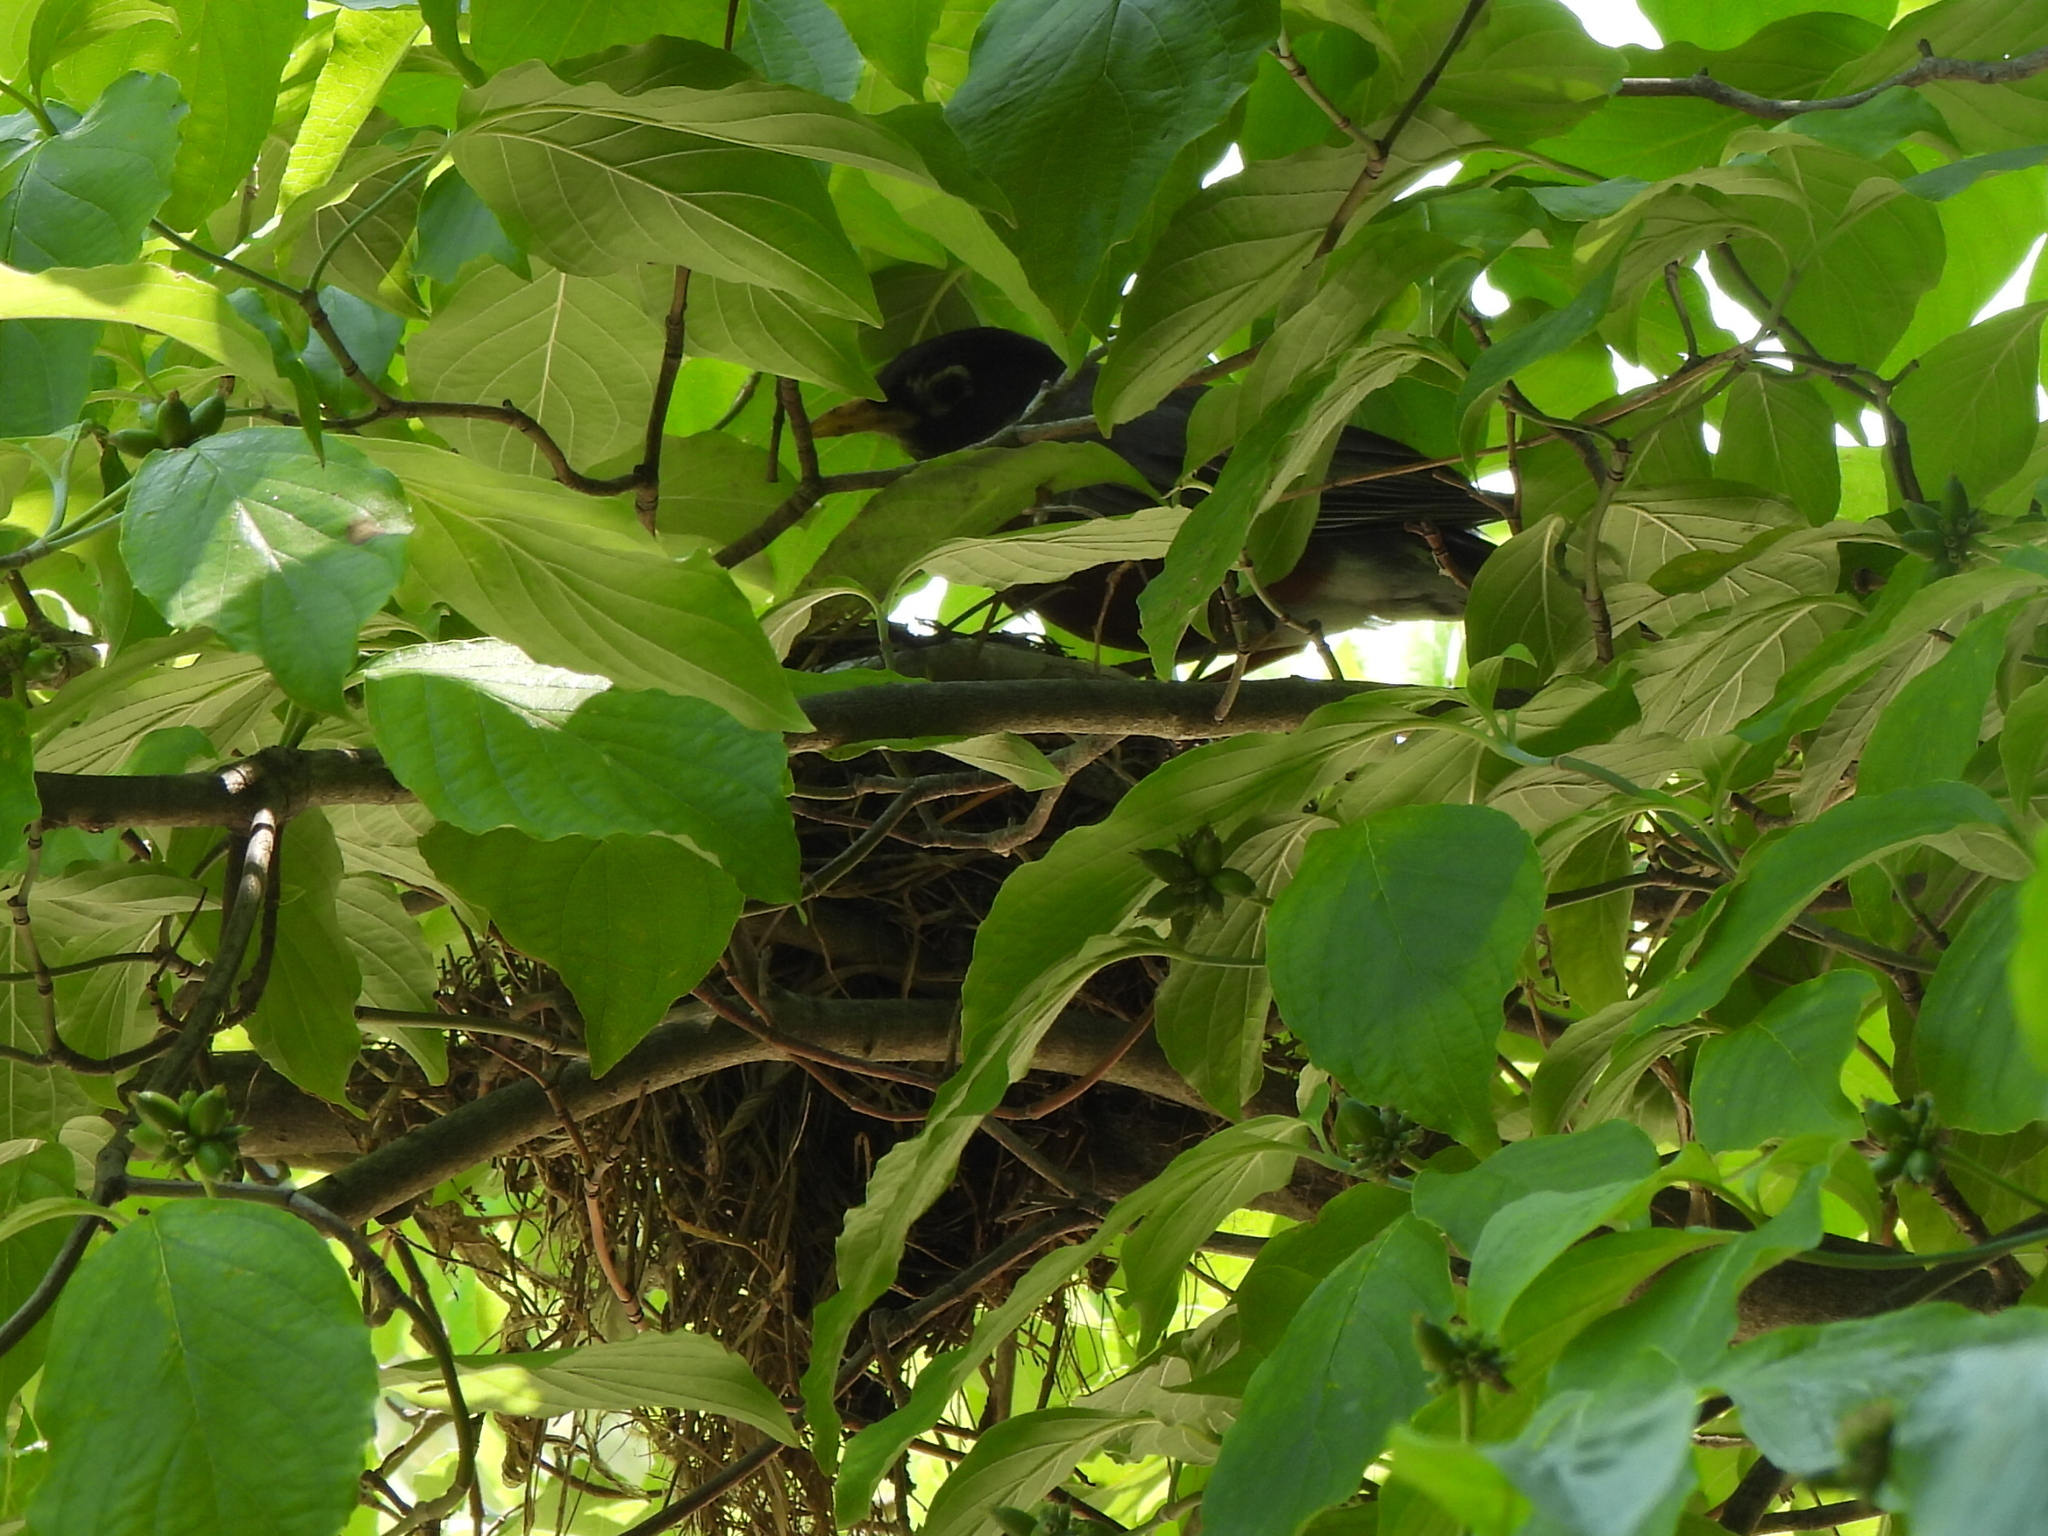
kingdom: Animalia
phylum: Chordata
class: Aves
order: Passeriformes
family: Turdidae
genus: Turdus
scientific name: Turdus migratorius
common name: American robin
